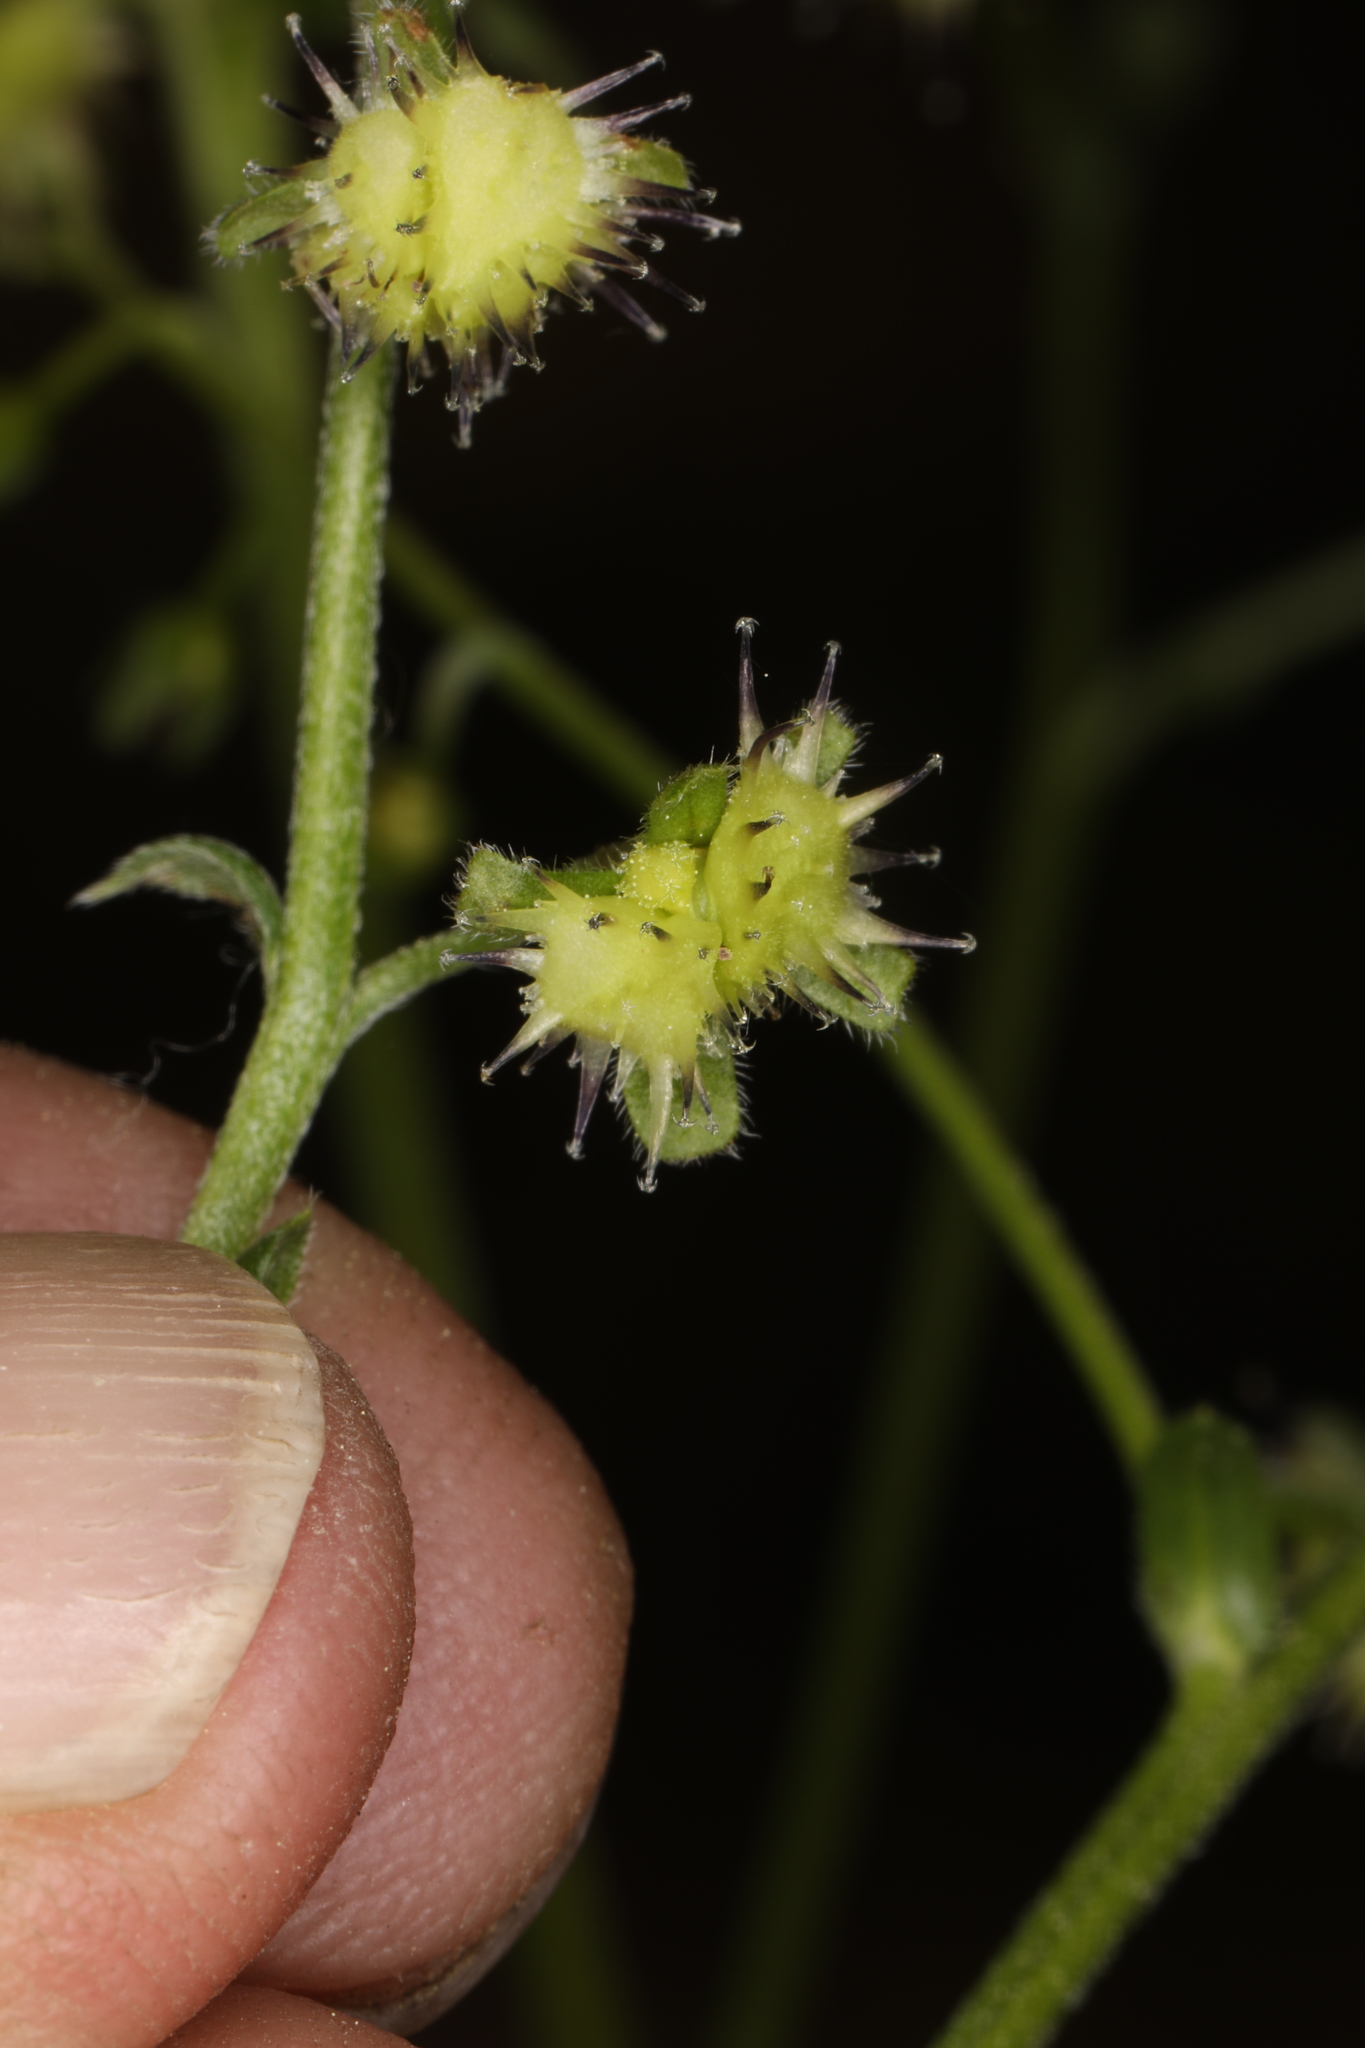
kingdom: Plantae
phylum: Tracheophyta
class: Magnoliopsida
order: Boraginales
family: Boraginaceae
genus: Hackelia
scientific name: Hackelia micrantha
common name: Meadow stickseed
